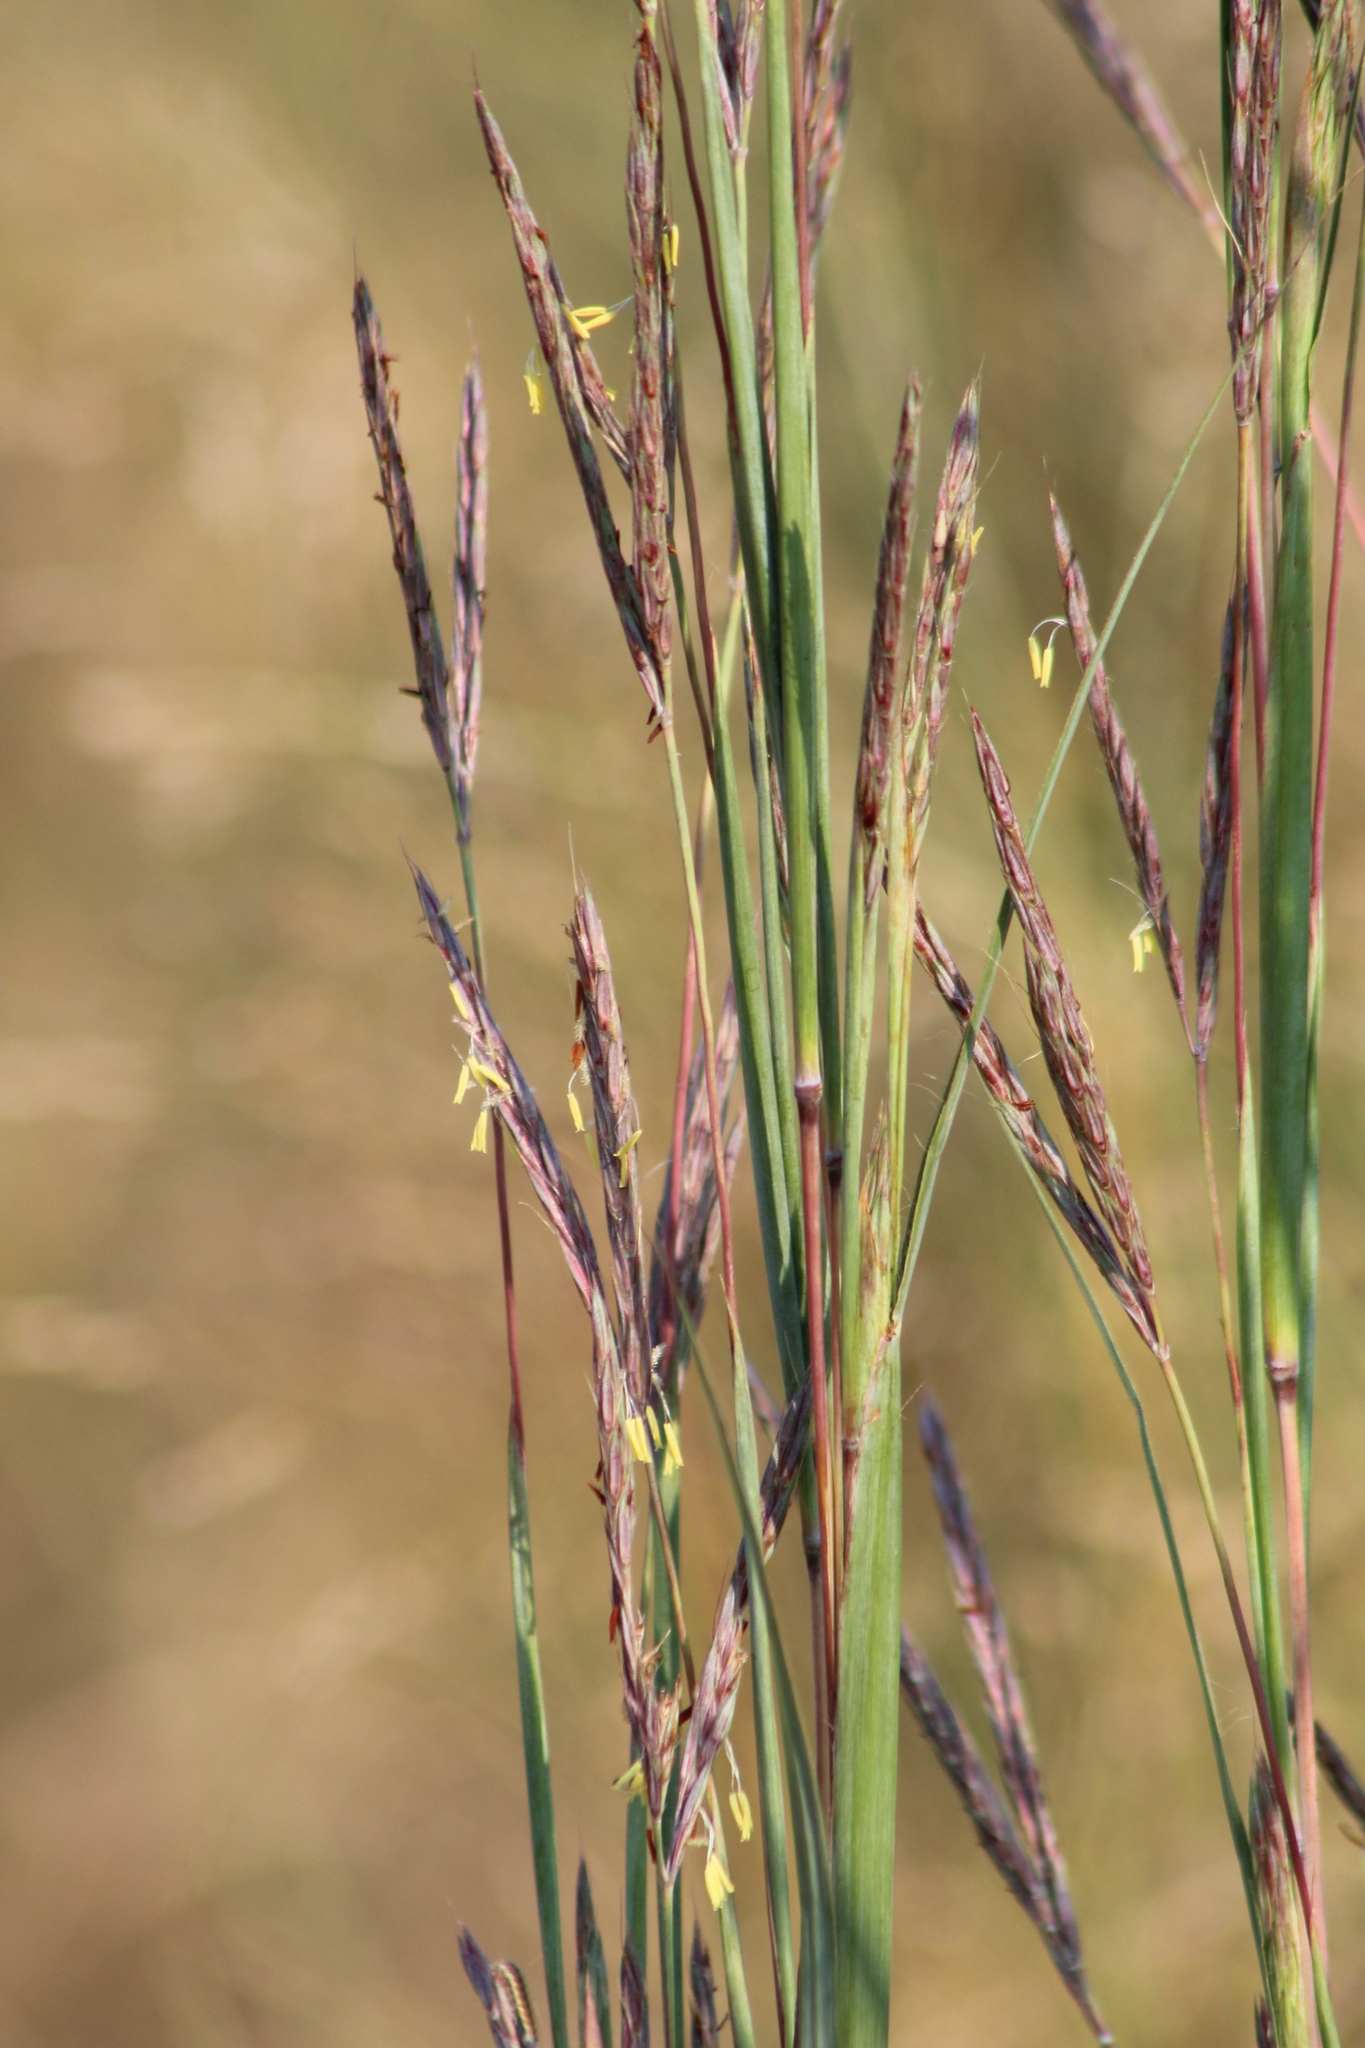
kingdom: Plantae
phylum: Tracheophyta
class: Liliopsida
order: Poales
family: Poaceae
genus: Andropogon
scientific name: Andropogon gerardi
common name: Big bluestem
